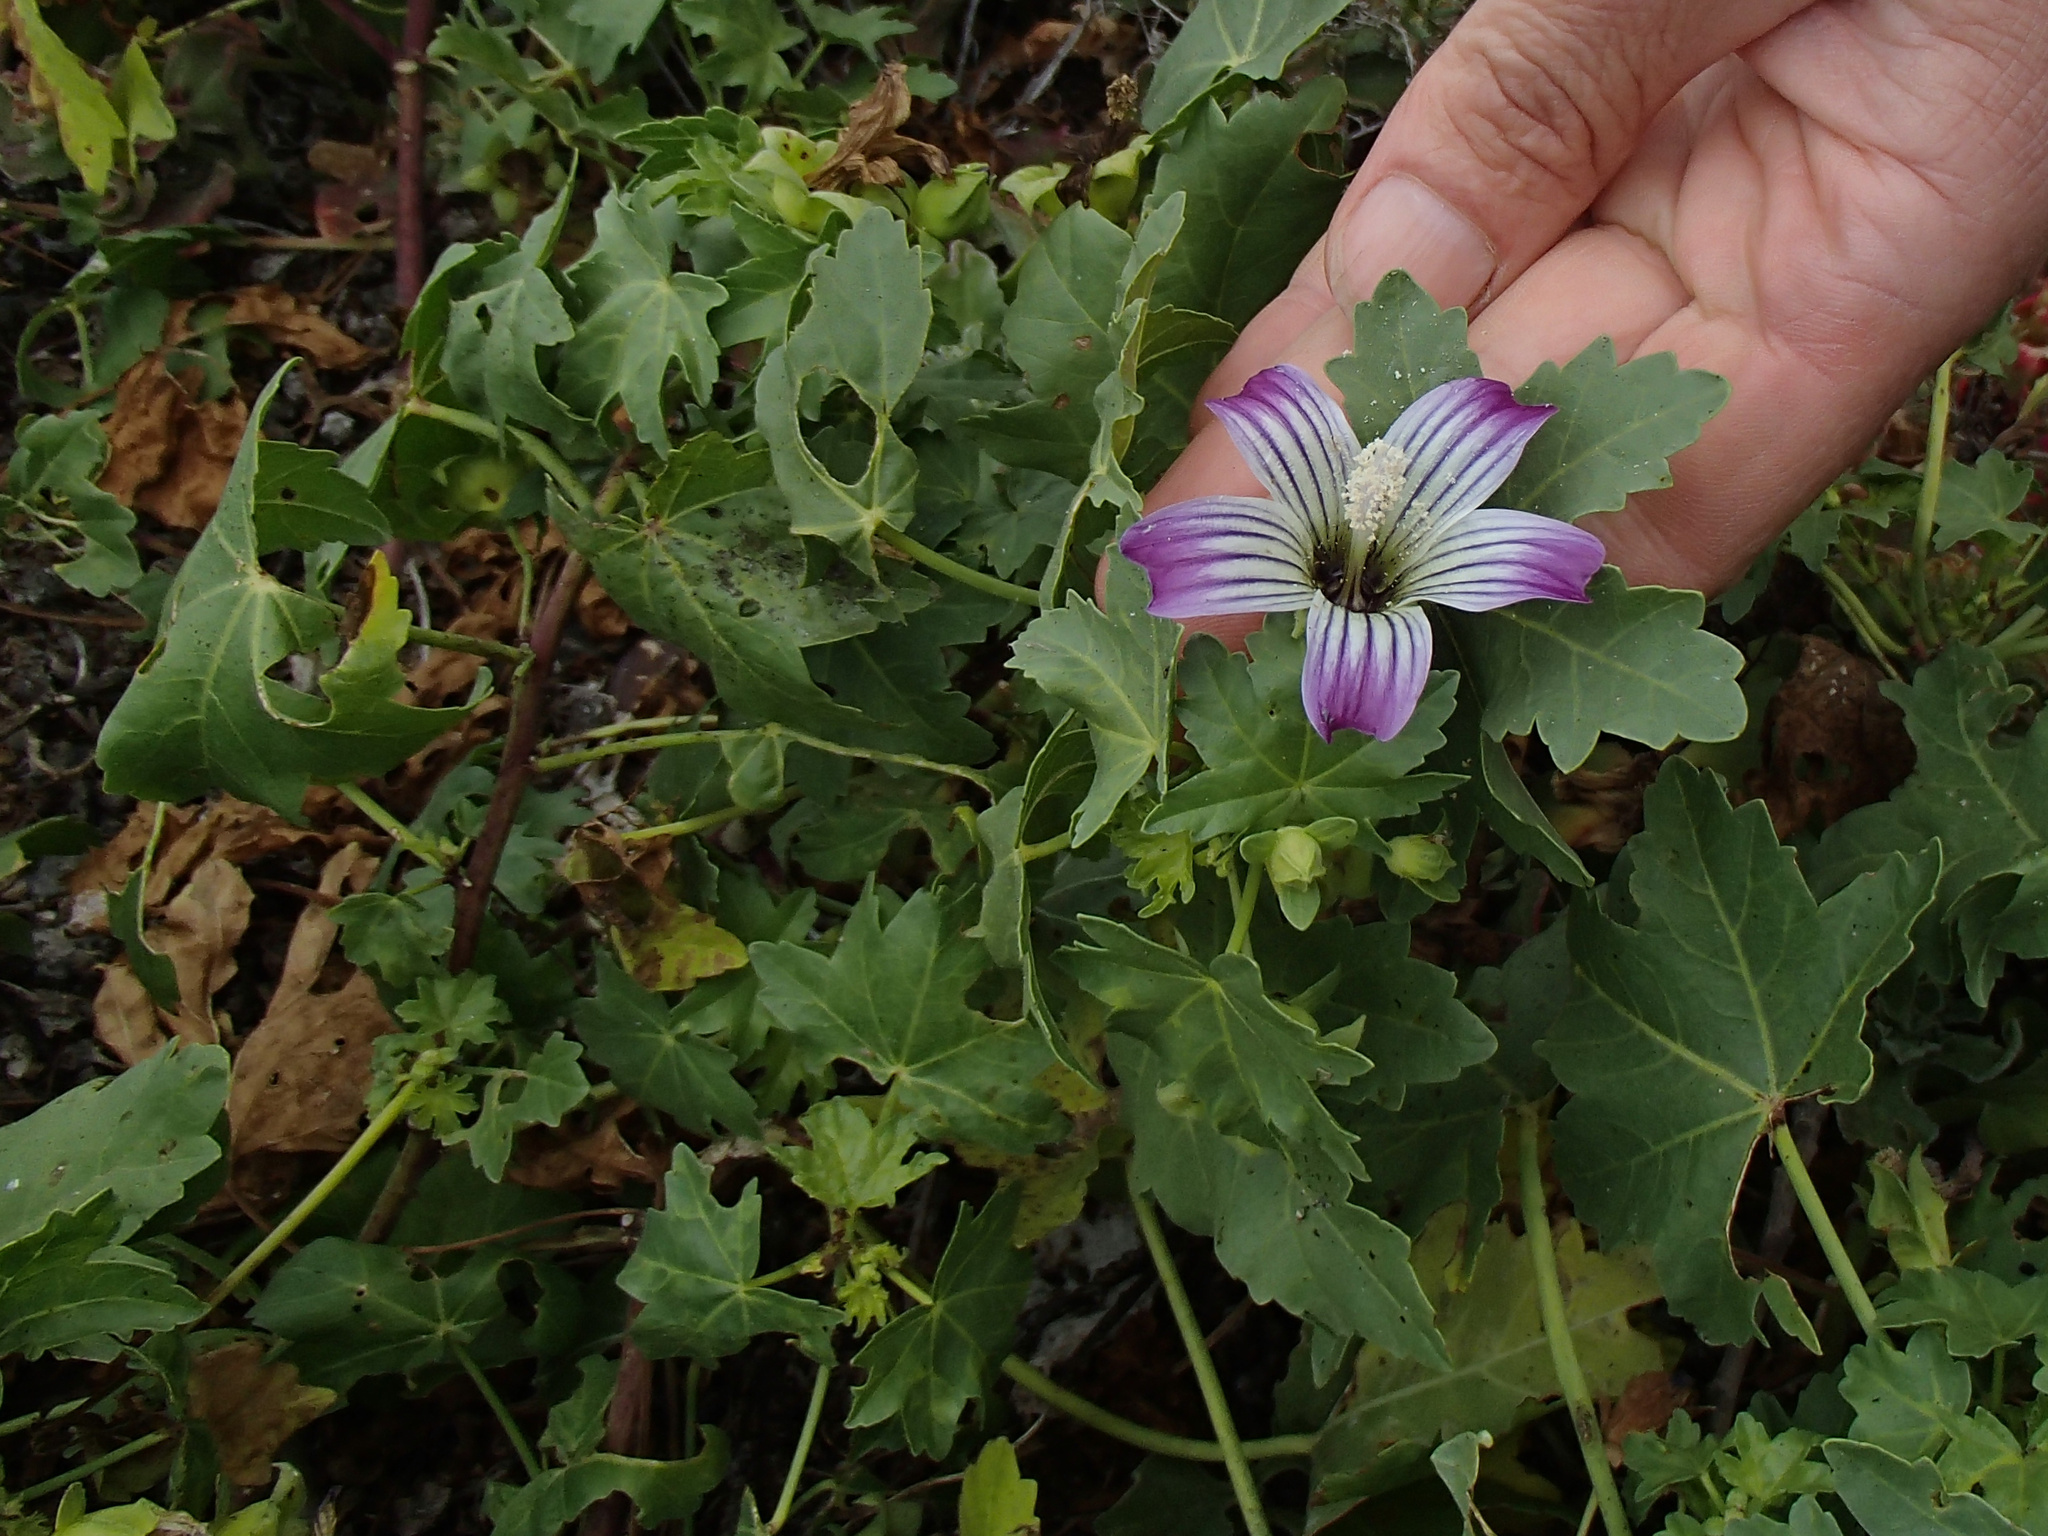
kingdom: Plantae
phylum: Tracheophyta
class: Magnoliopsida
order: Malvales
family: Malvaceae
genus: Malva
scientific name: Malva pacifica
